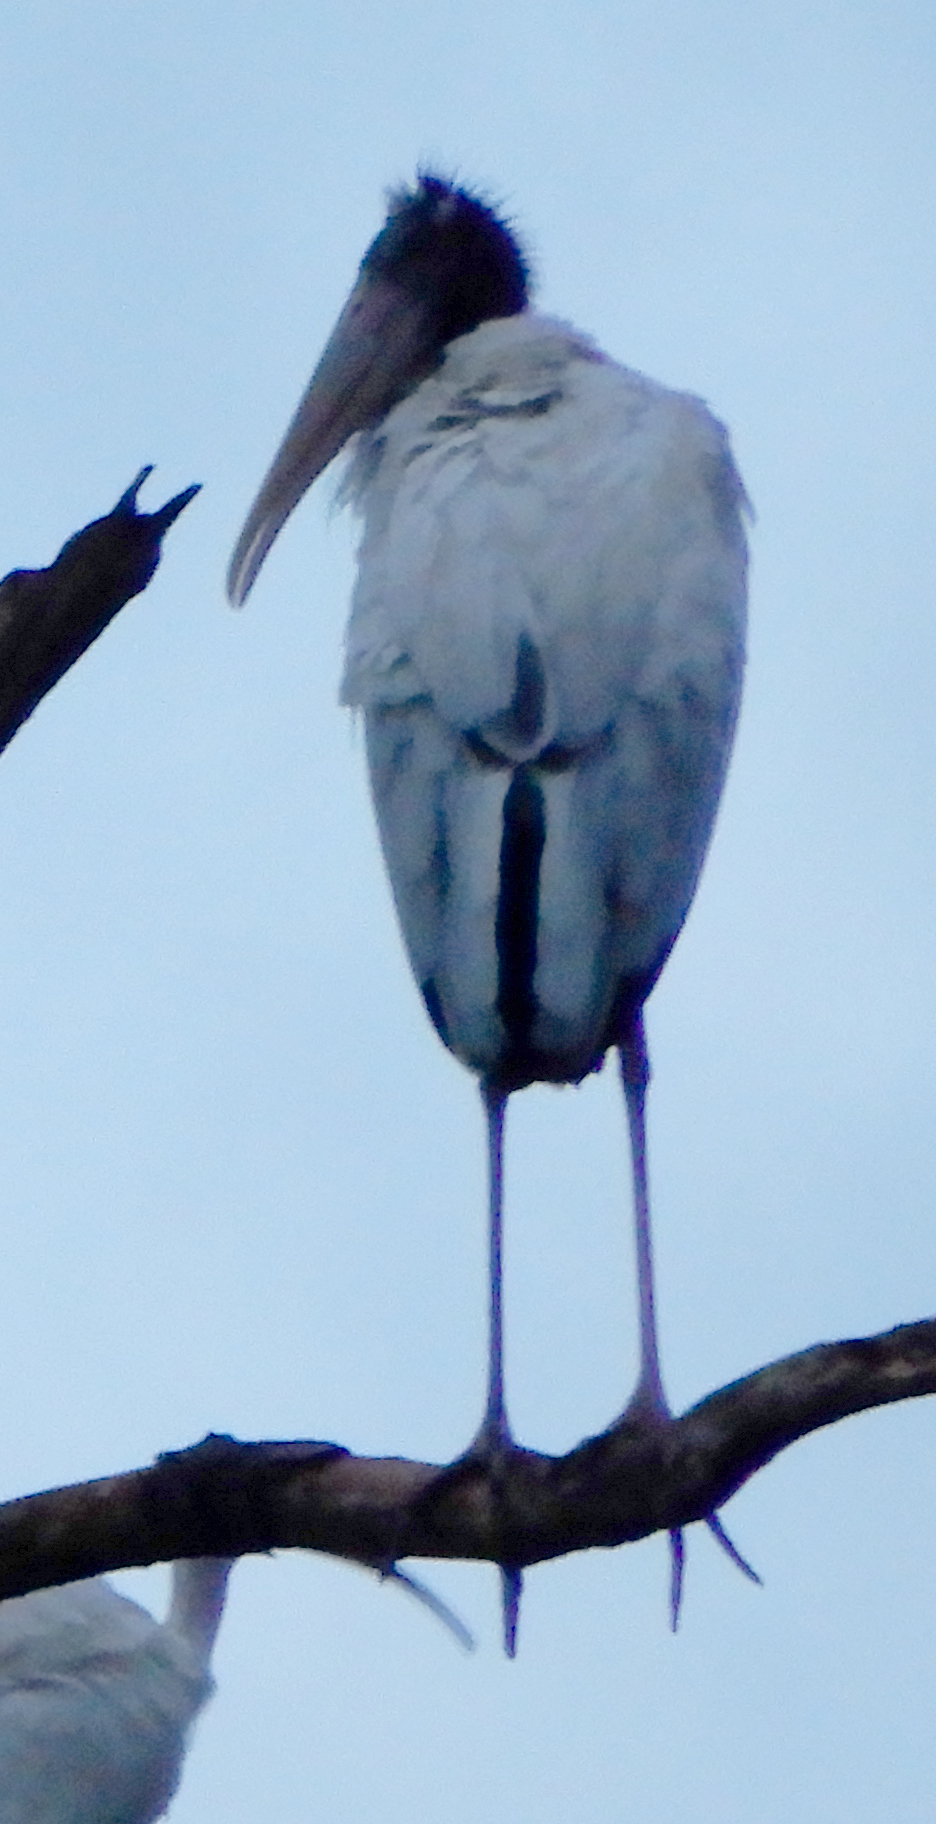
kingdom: Animalia
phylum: Chordata
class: Aves
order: Ciconiiformes
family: Ciconiidae
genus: Mycteria
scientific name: Mycteria americana
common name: Wood stork
